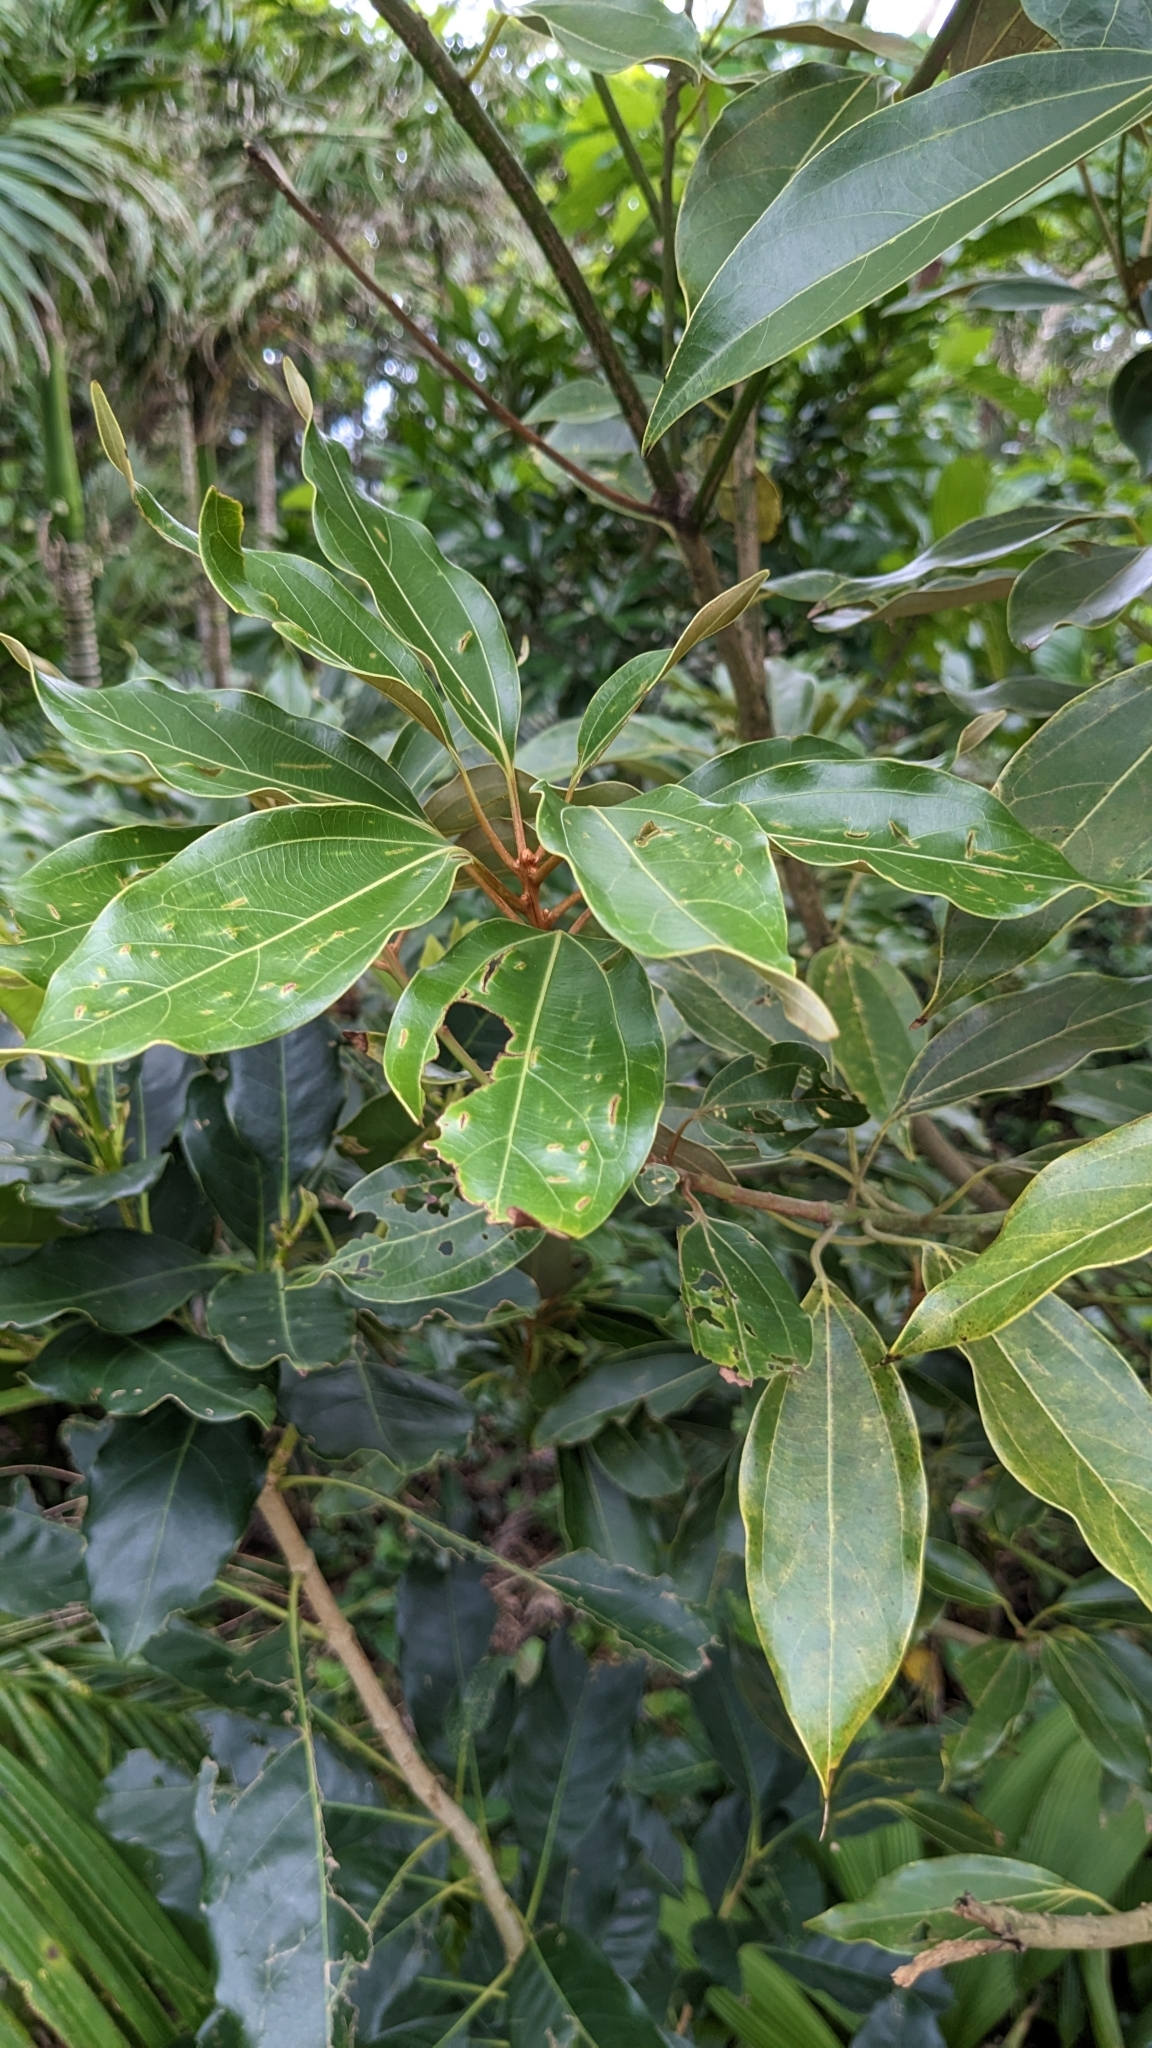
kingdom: Plantae
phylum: Tracheophyta
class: Magnoliopsida
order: Laurales
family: Lauraceae
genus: Neolitsea
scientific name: Neolitsea aurata
